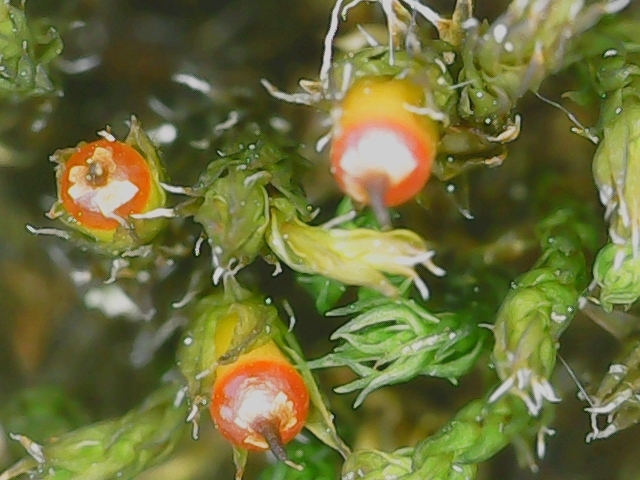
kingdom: Plantae
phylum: Bryophyta
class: Bryopsida
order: Grimmiales
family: Grimmiaceae
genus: Schistidium
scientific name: Schistidium crassipilum
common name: Thickpoint bloom moss
